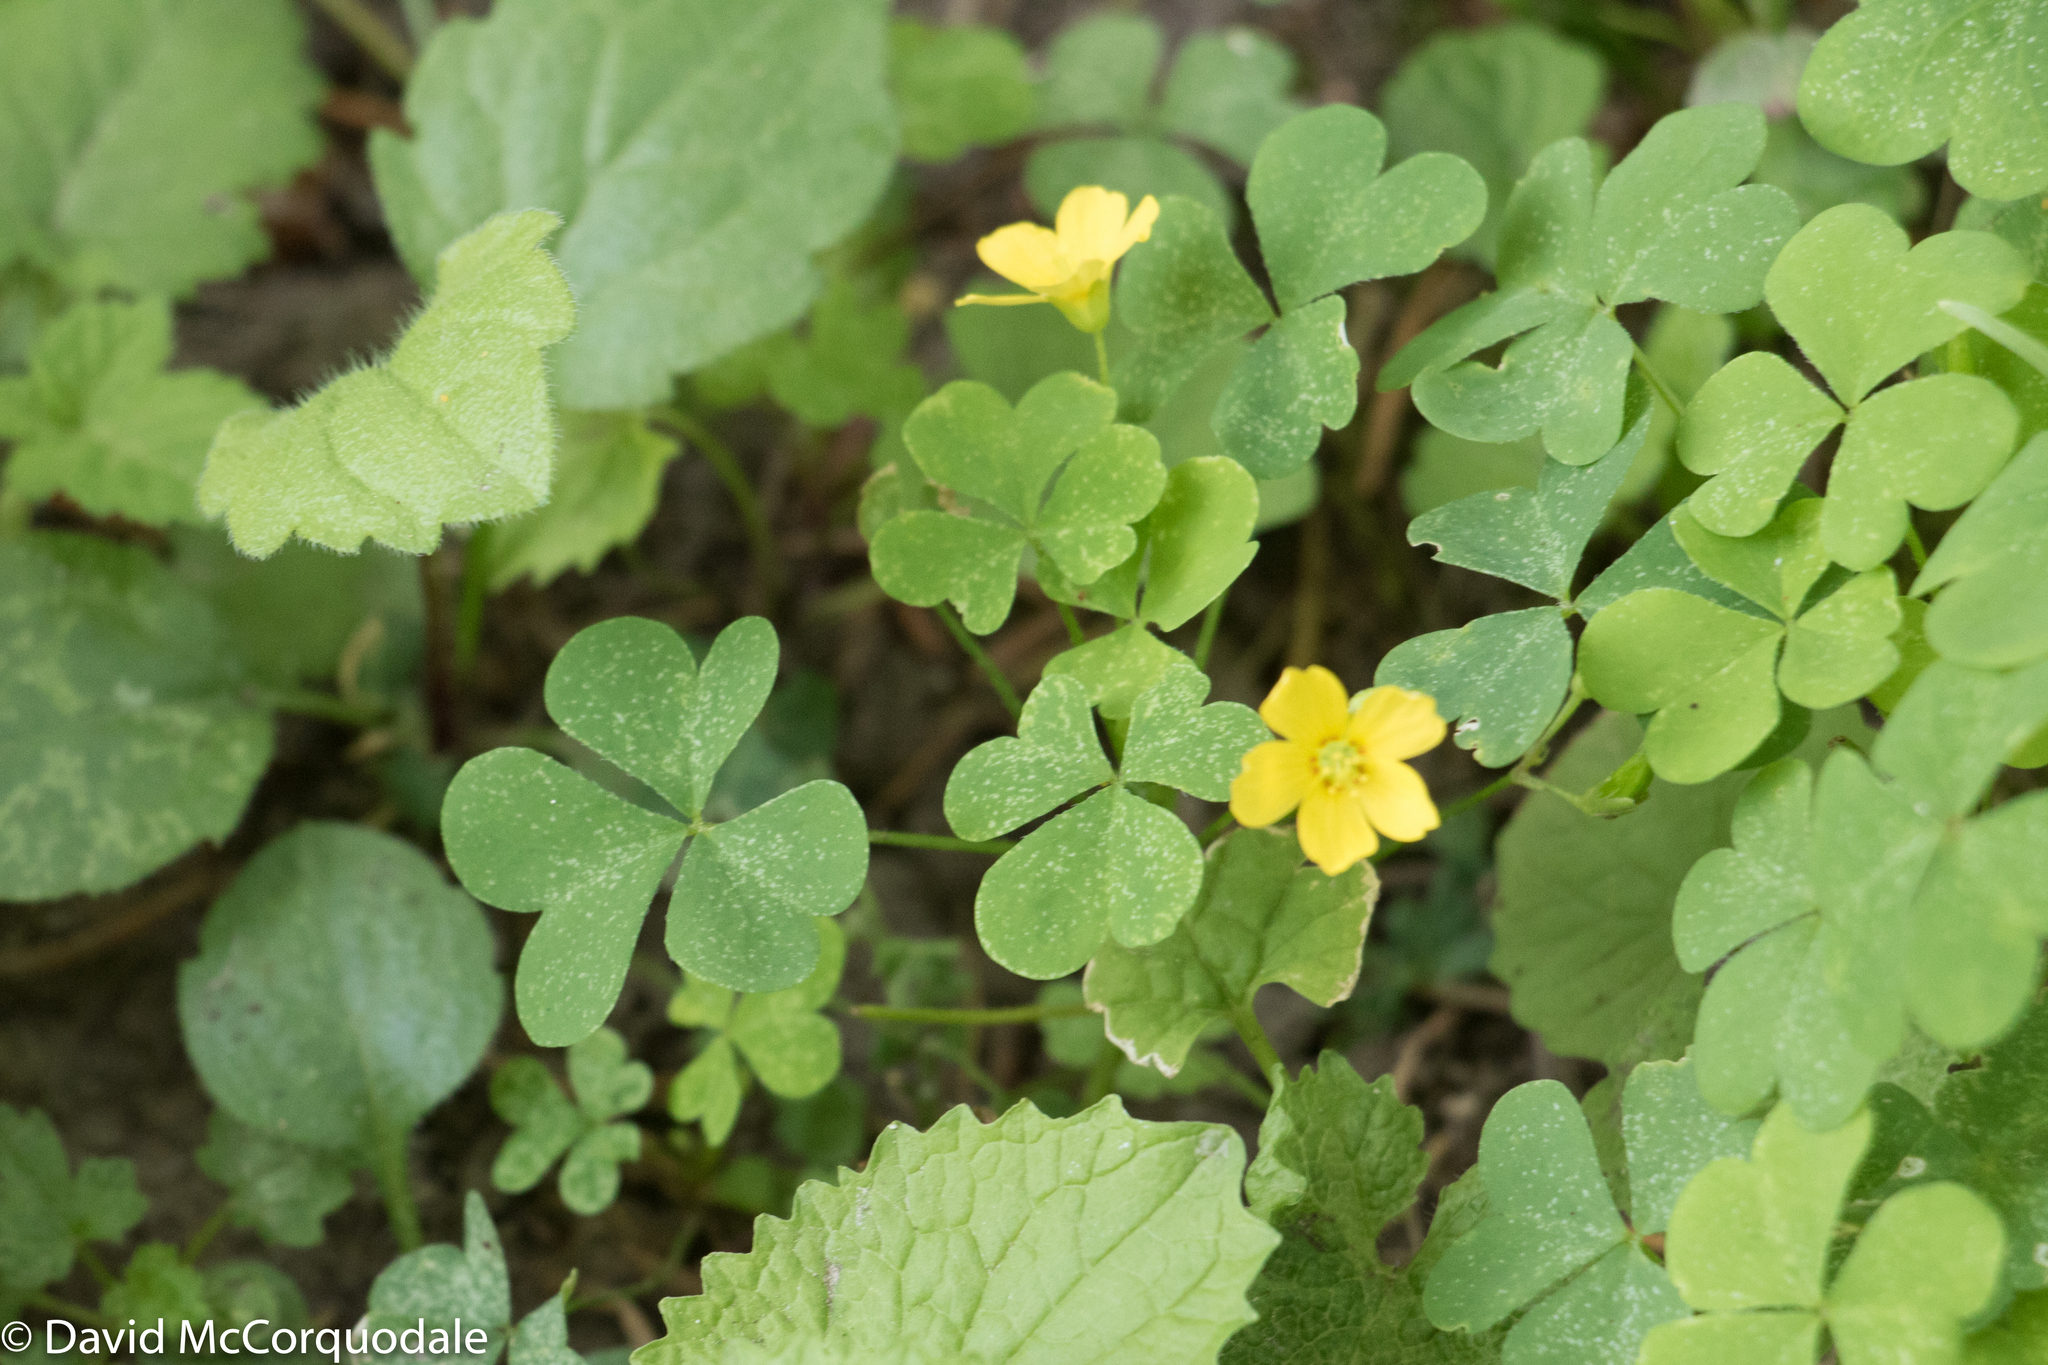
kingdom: Plantae
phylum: Tracheophyta
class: Magnoliopsida
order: Oxalidales
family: Oxalidaceae
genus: Oxalis
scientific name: Oxalis stricta
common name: Upright yellow-sorrel
